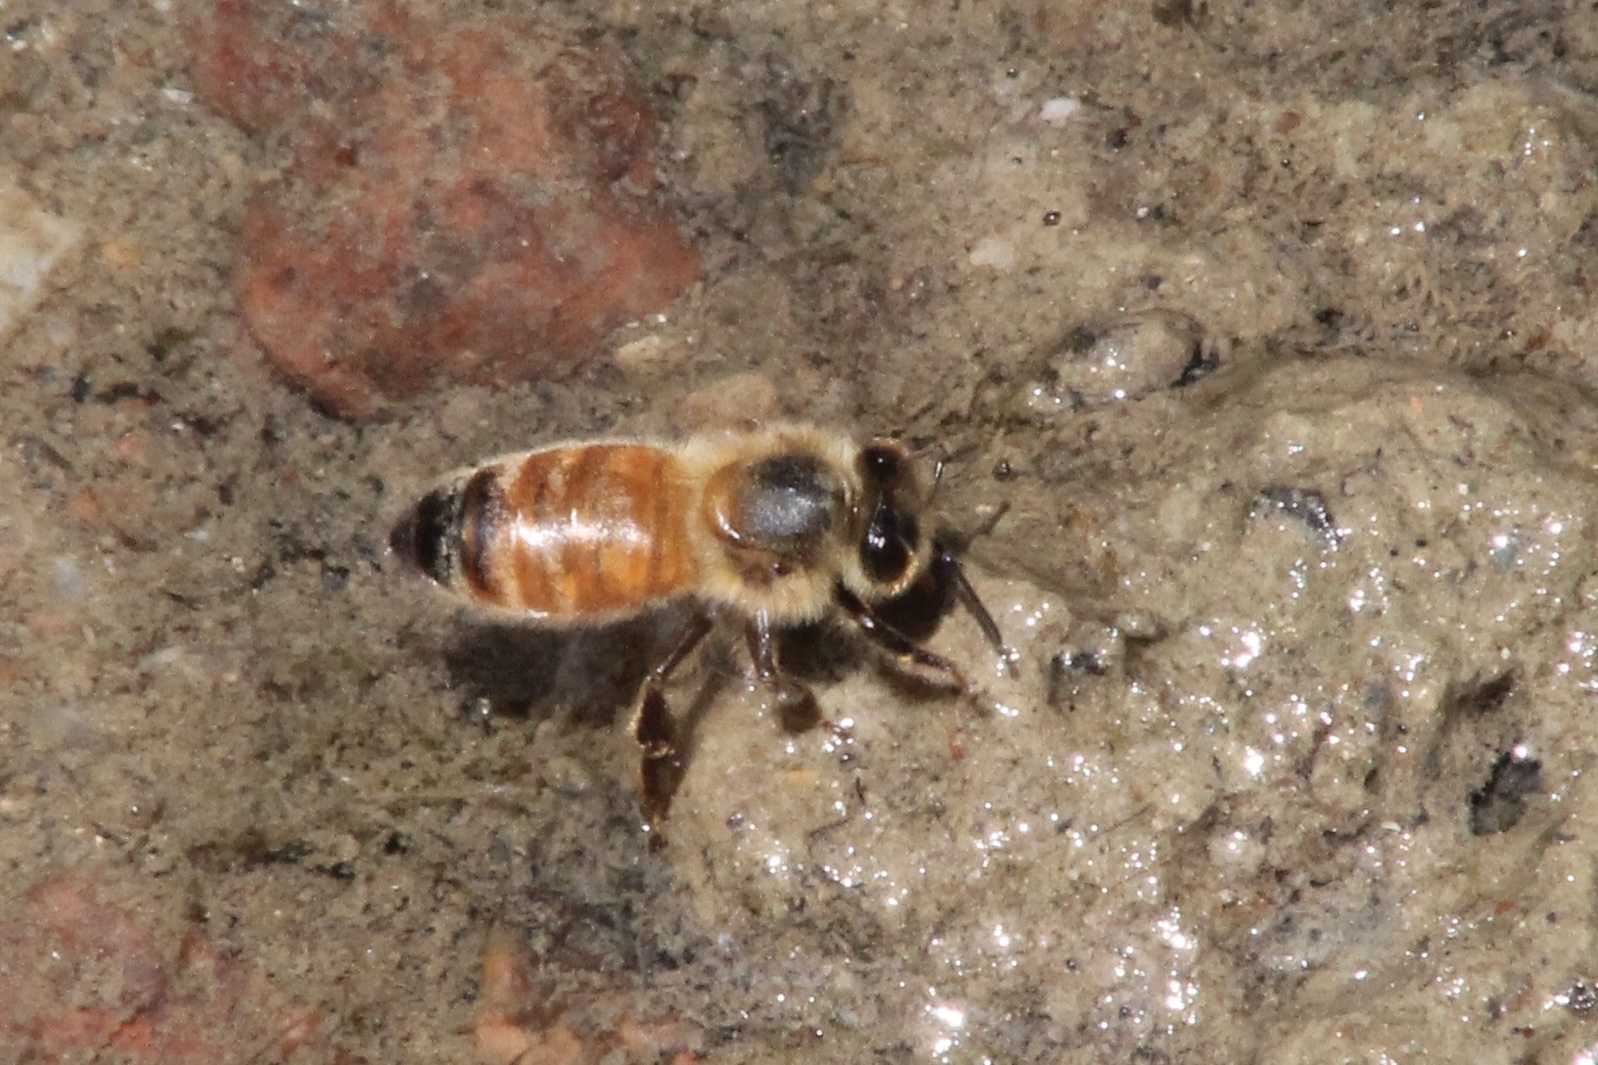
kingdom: Animalia
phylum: Arthropoda
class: Insecta
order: Hymenoptera
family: Apidae
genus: Apis
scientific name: Apis mellifera
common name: Honey bee
